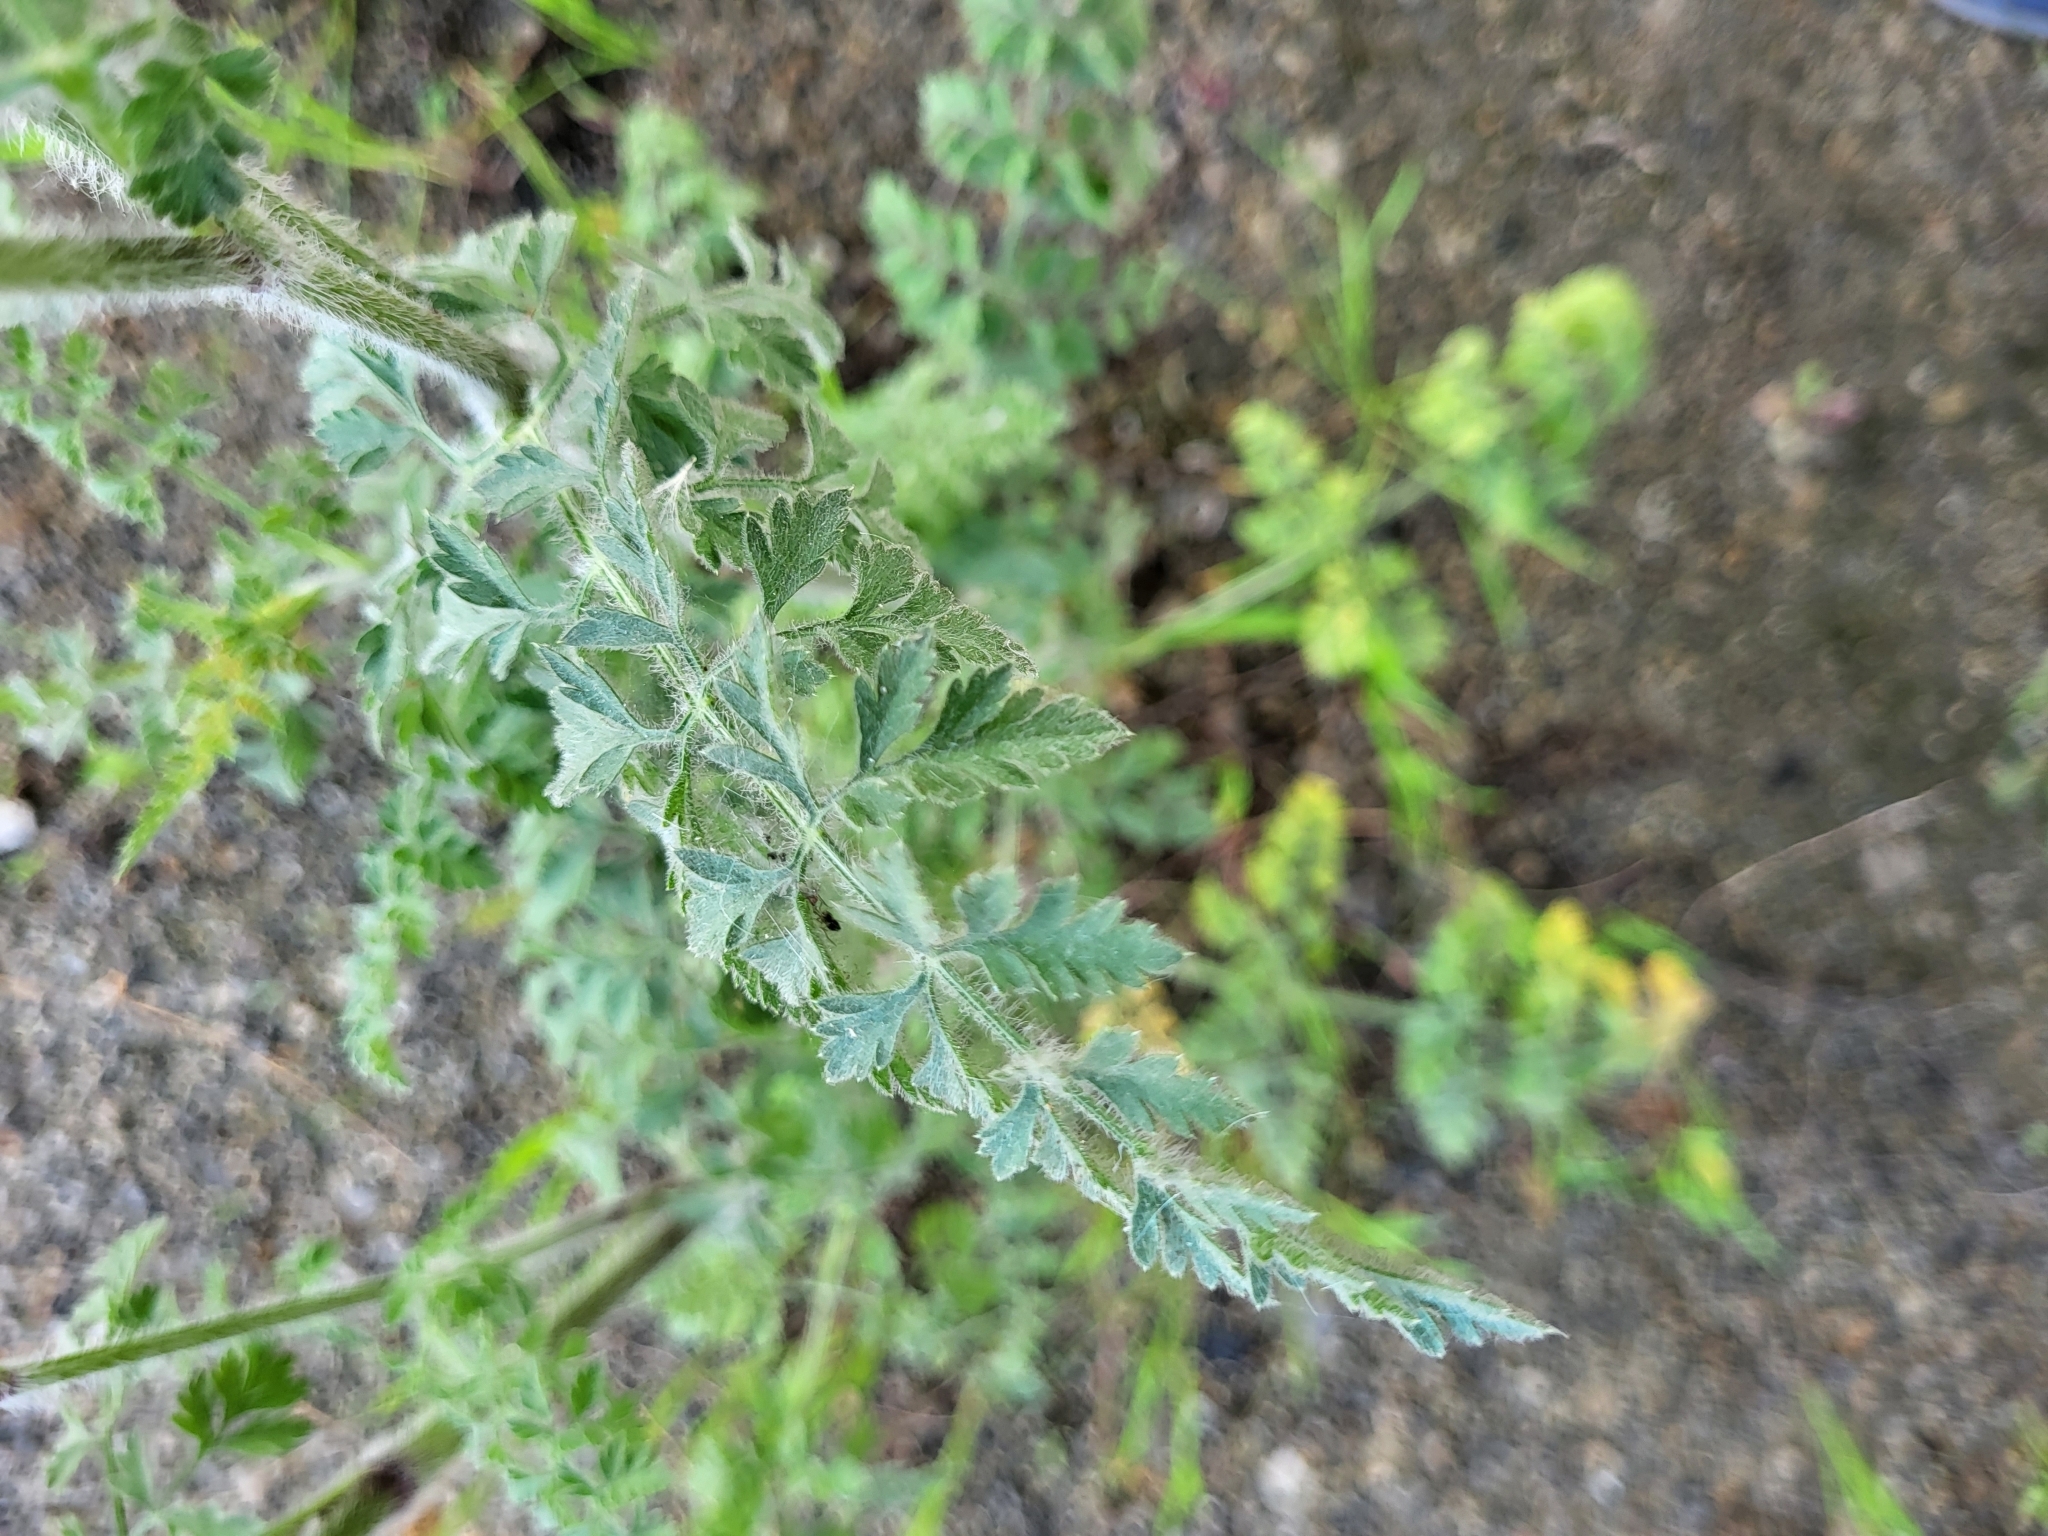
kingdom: Plantae
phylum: Tracheophyta
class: Magnoliopsida
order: Apiales
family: Apiaceae
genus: Daucus
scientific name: Daucus carota
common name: Wild carrot
